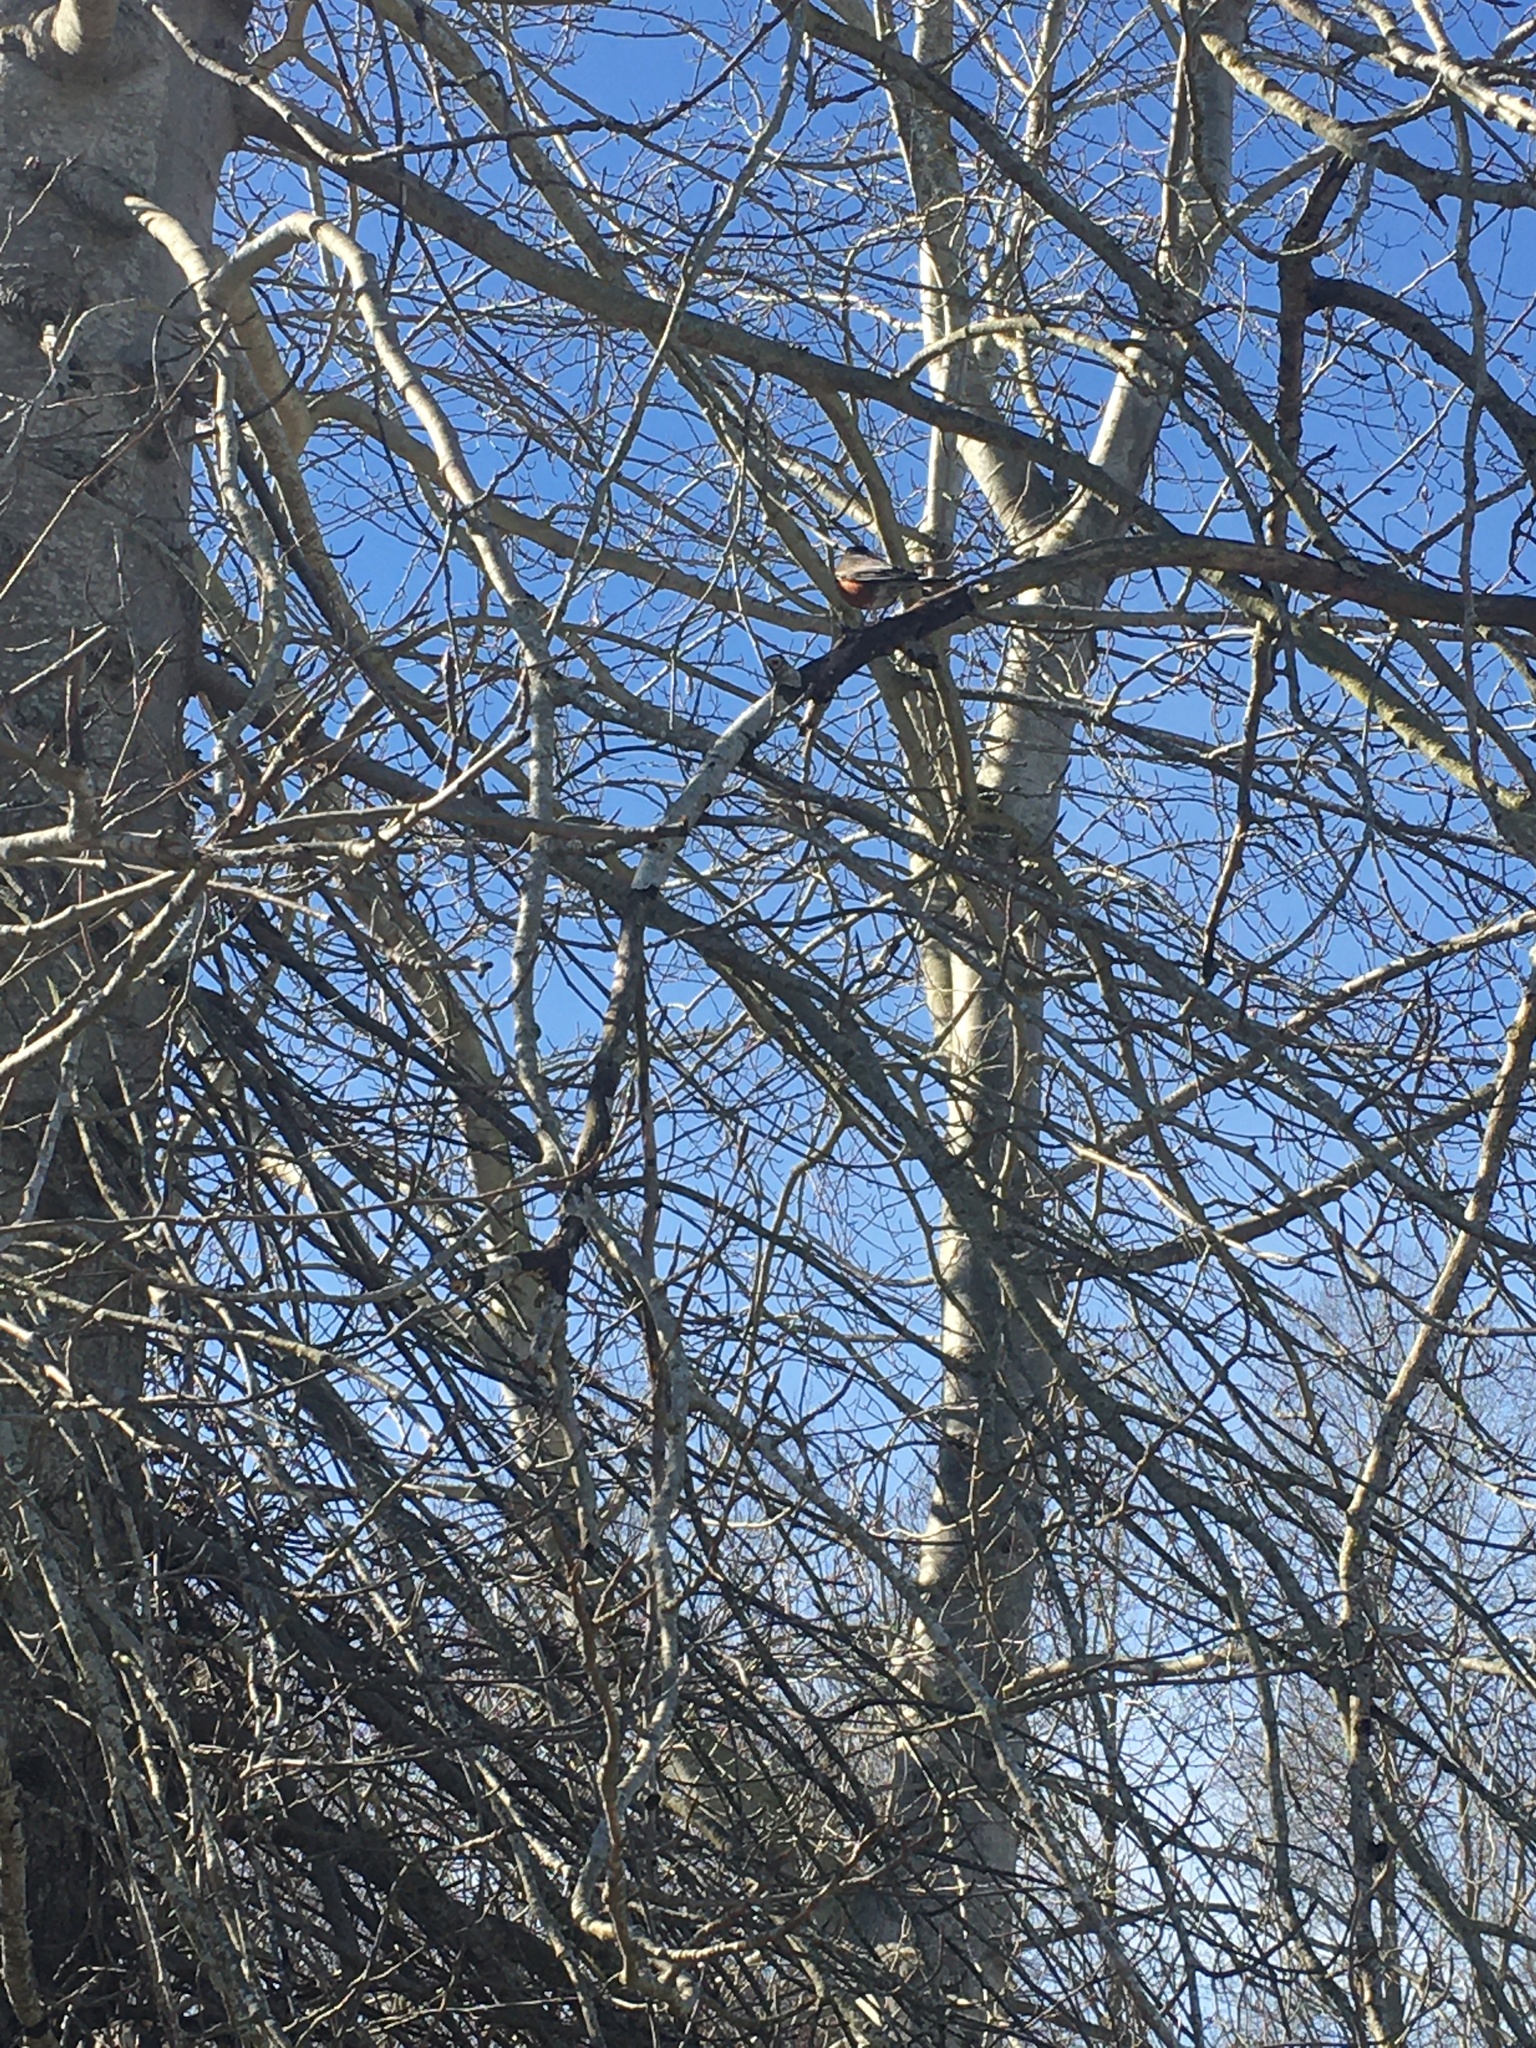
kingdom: Animalia
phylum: Chordata
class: Aves
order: Passeriformes
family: Turdidae
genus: Turdus
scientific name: Turdus migratorius
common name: American robin
